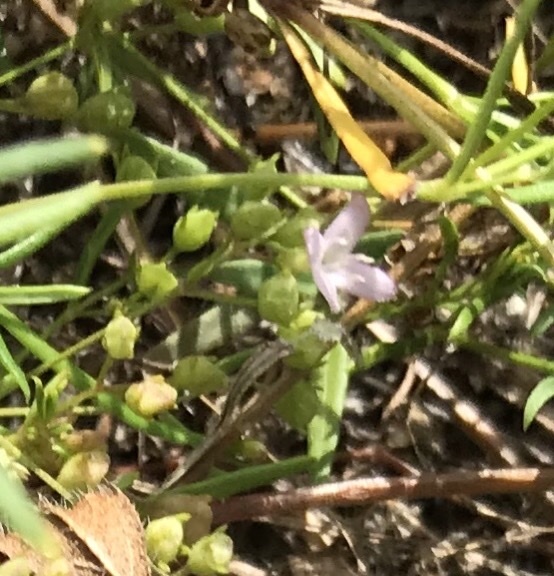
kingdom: Plantae
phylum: Tracheophyta
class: Magnoliopsida
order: Gentianales
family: Rubiaceae
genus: Stenaria
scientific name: Stenaria nigricans
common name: Diamondflowers
